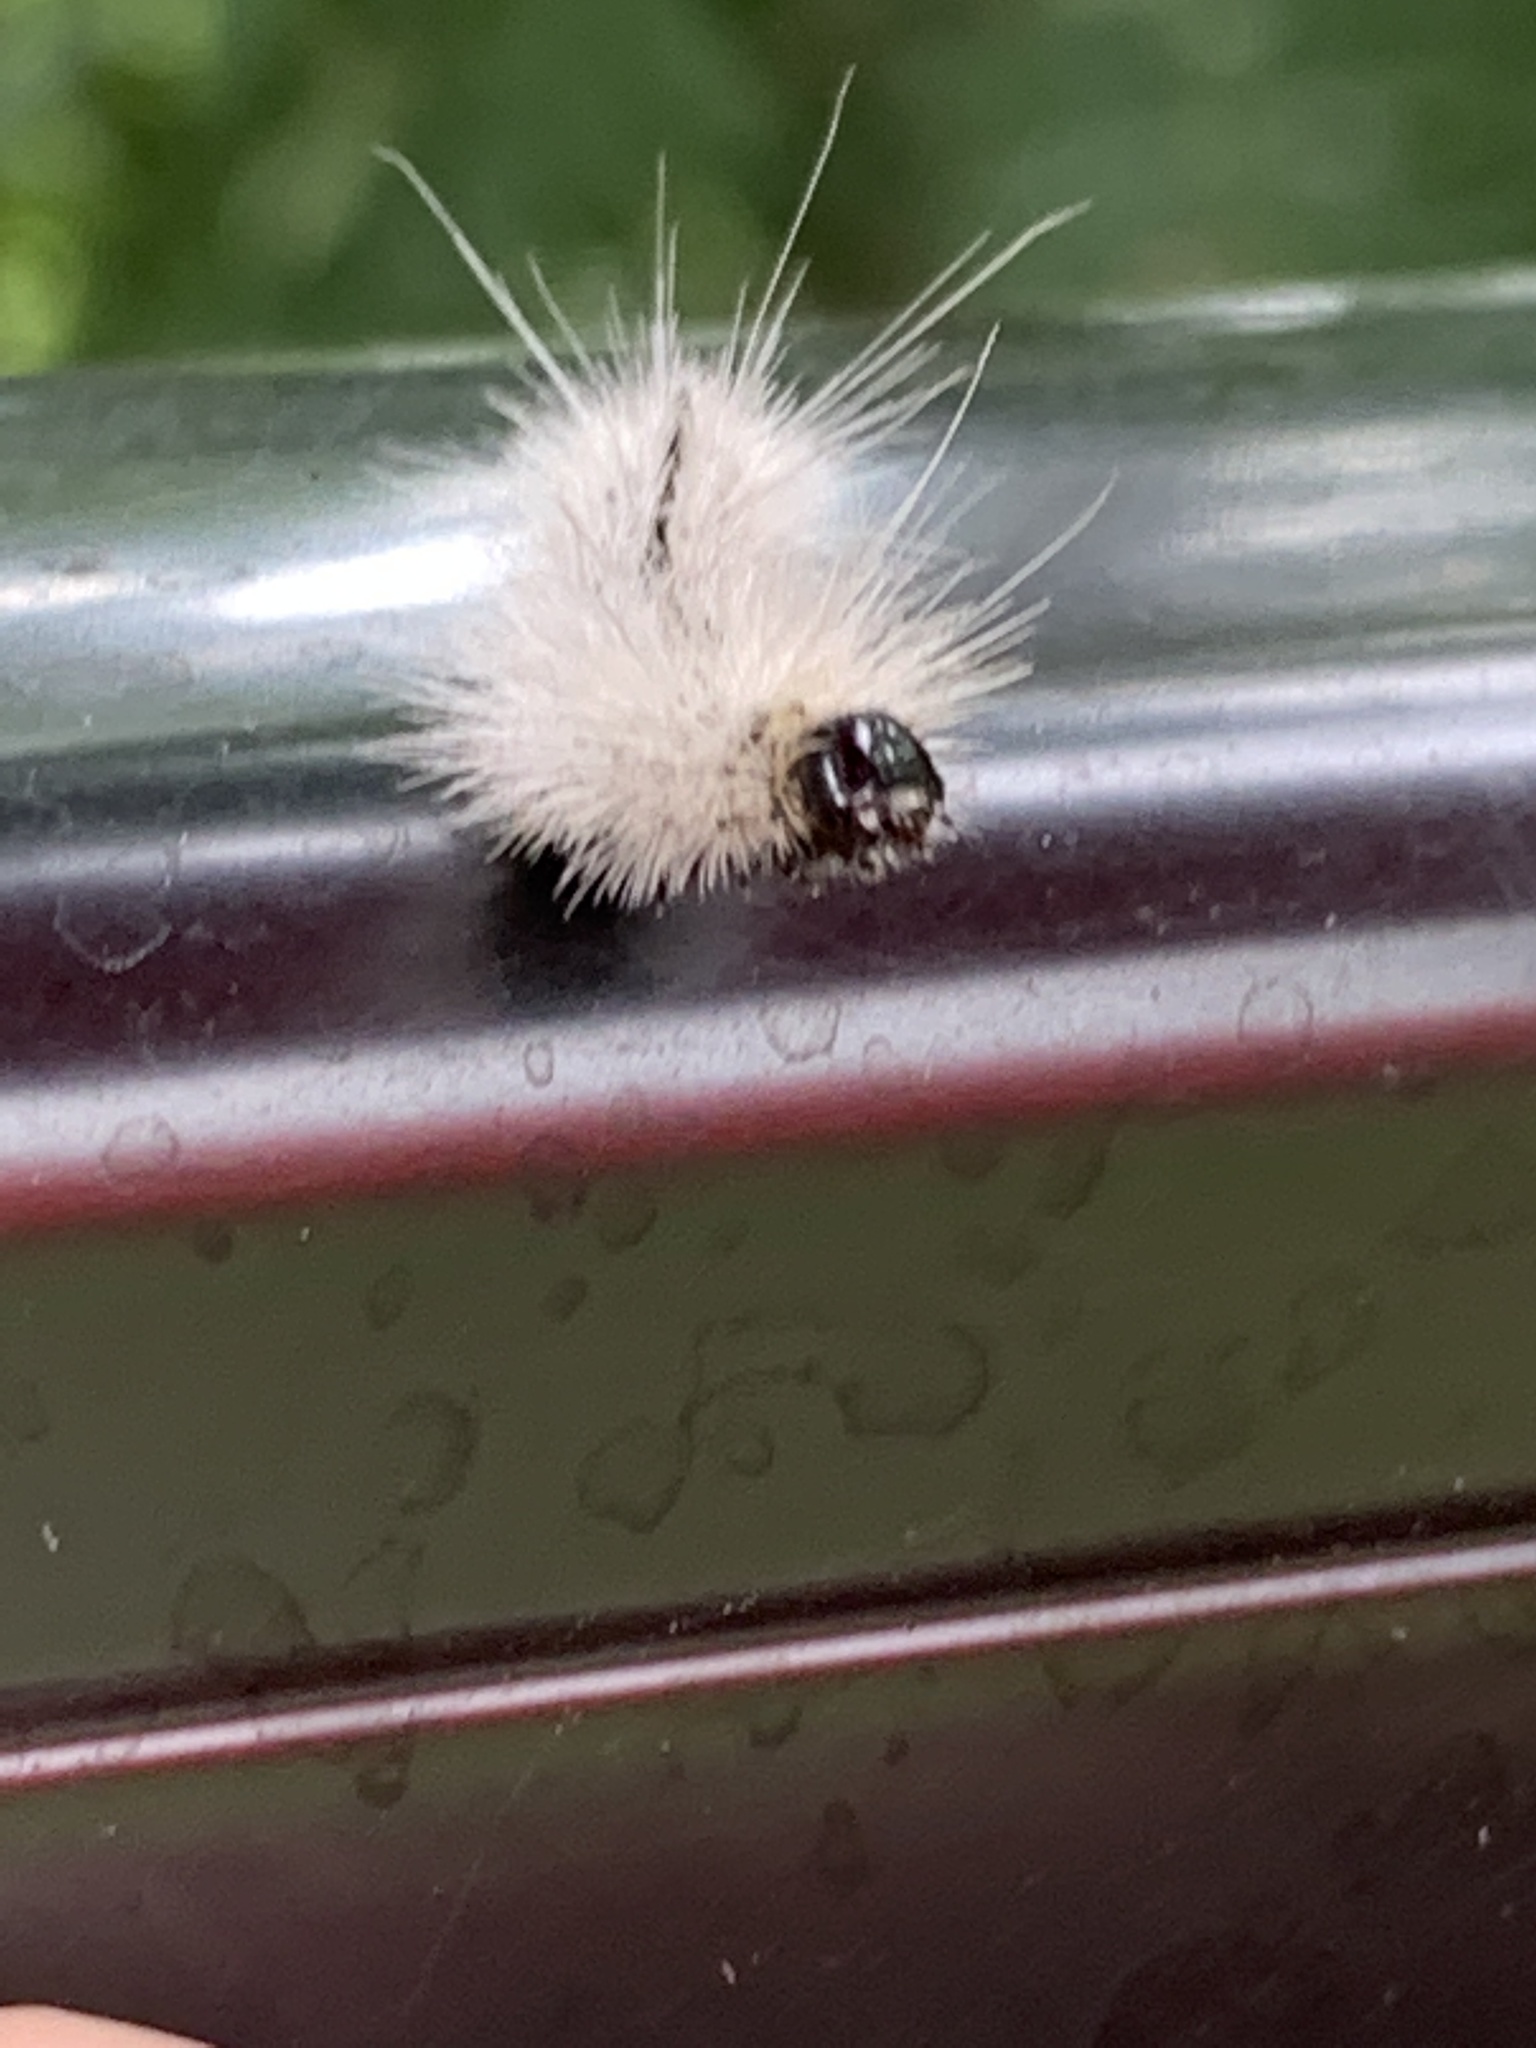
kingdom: Animalia
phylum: Arthropoda
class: Insecta
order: Lepidoptera
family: Erebidae
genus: Lophocampa
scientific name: Lophocampa caryae
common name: Hickory tussock moth
